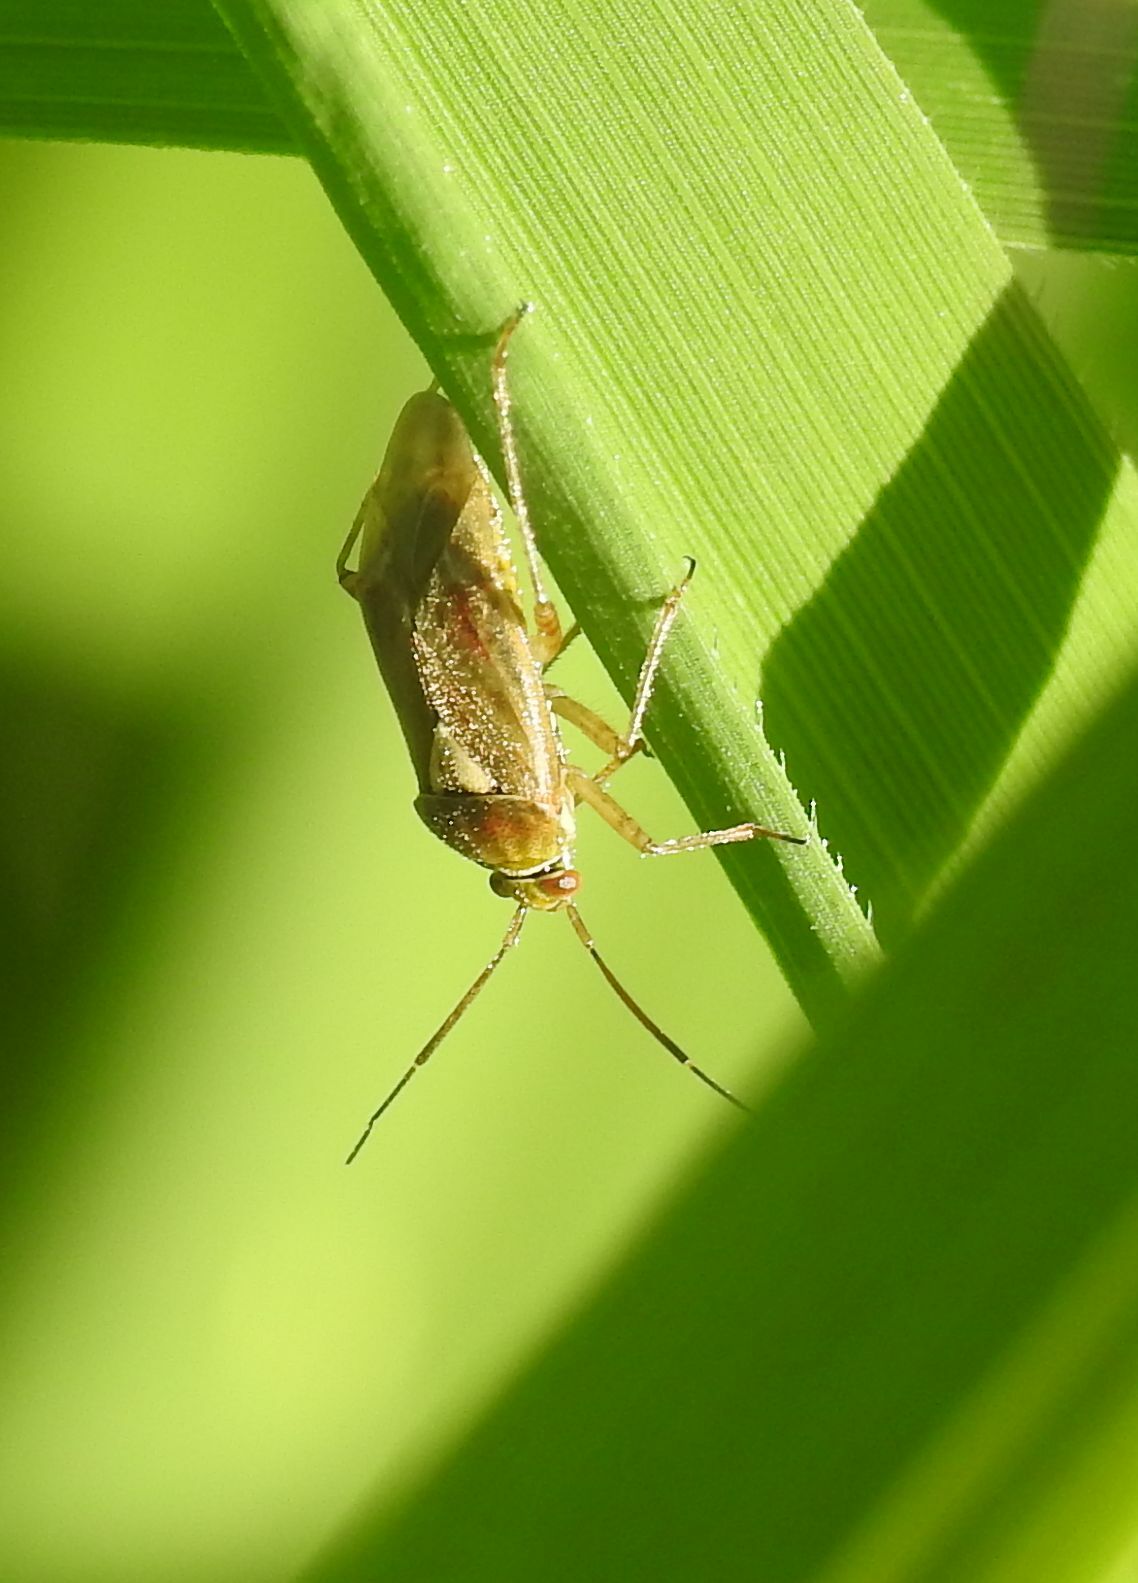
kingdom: Animalia
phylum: Arthropoda
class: Insecta
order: Hemiptera
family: Miridae
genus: Lygus
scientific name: Lygus rugulipennis
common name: European tarnished plant bug
